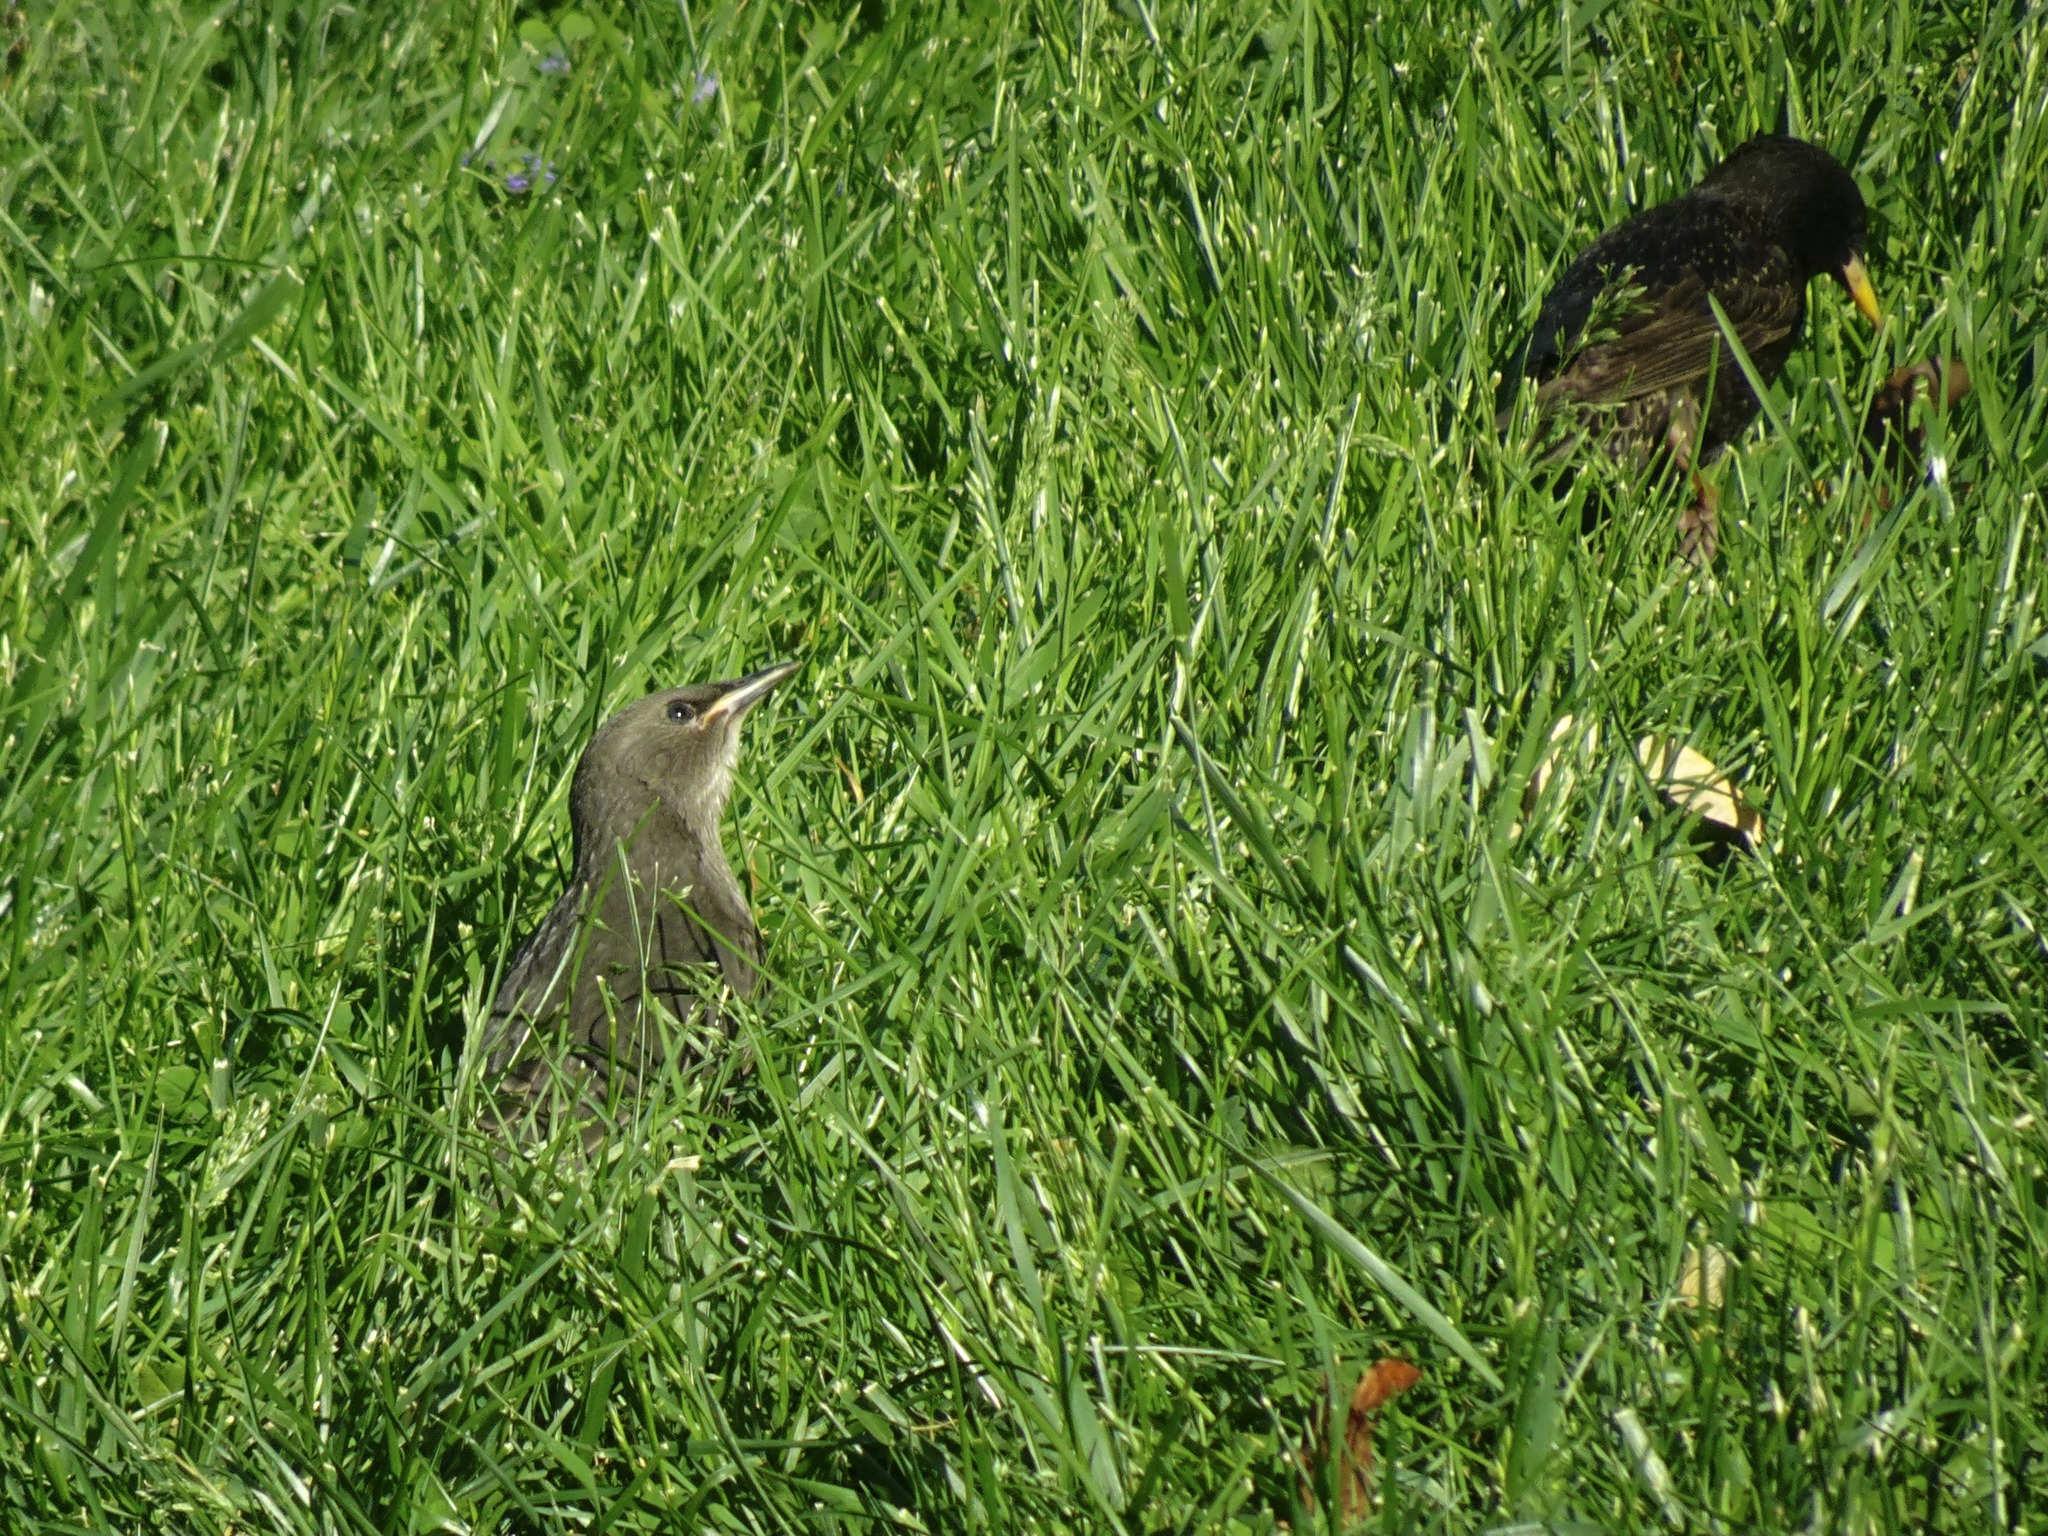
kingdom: Animalia
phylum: Chordata
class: Aves
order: Passeriformes
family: Sturnidae
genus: Sturnus
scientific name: Sturnus vulgaris
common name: Common starling
